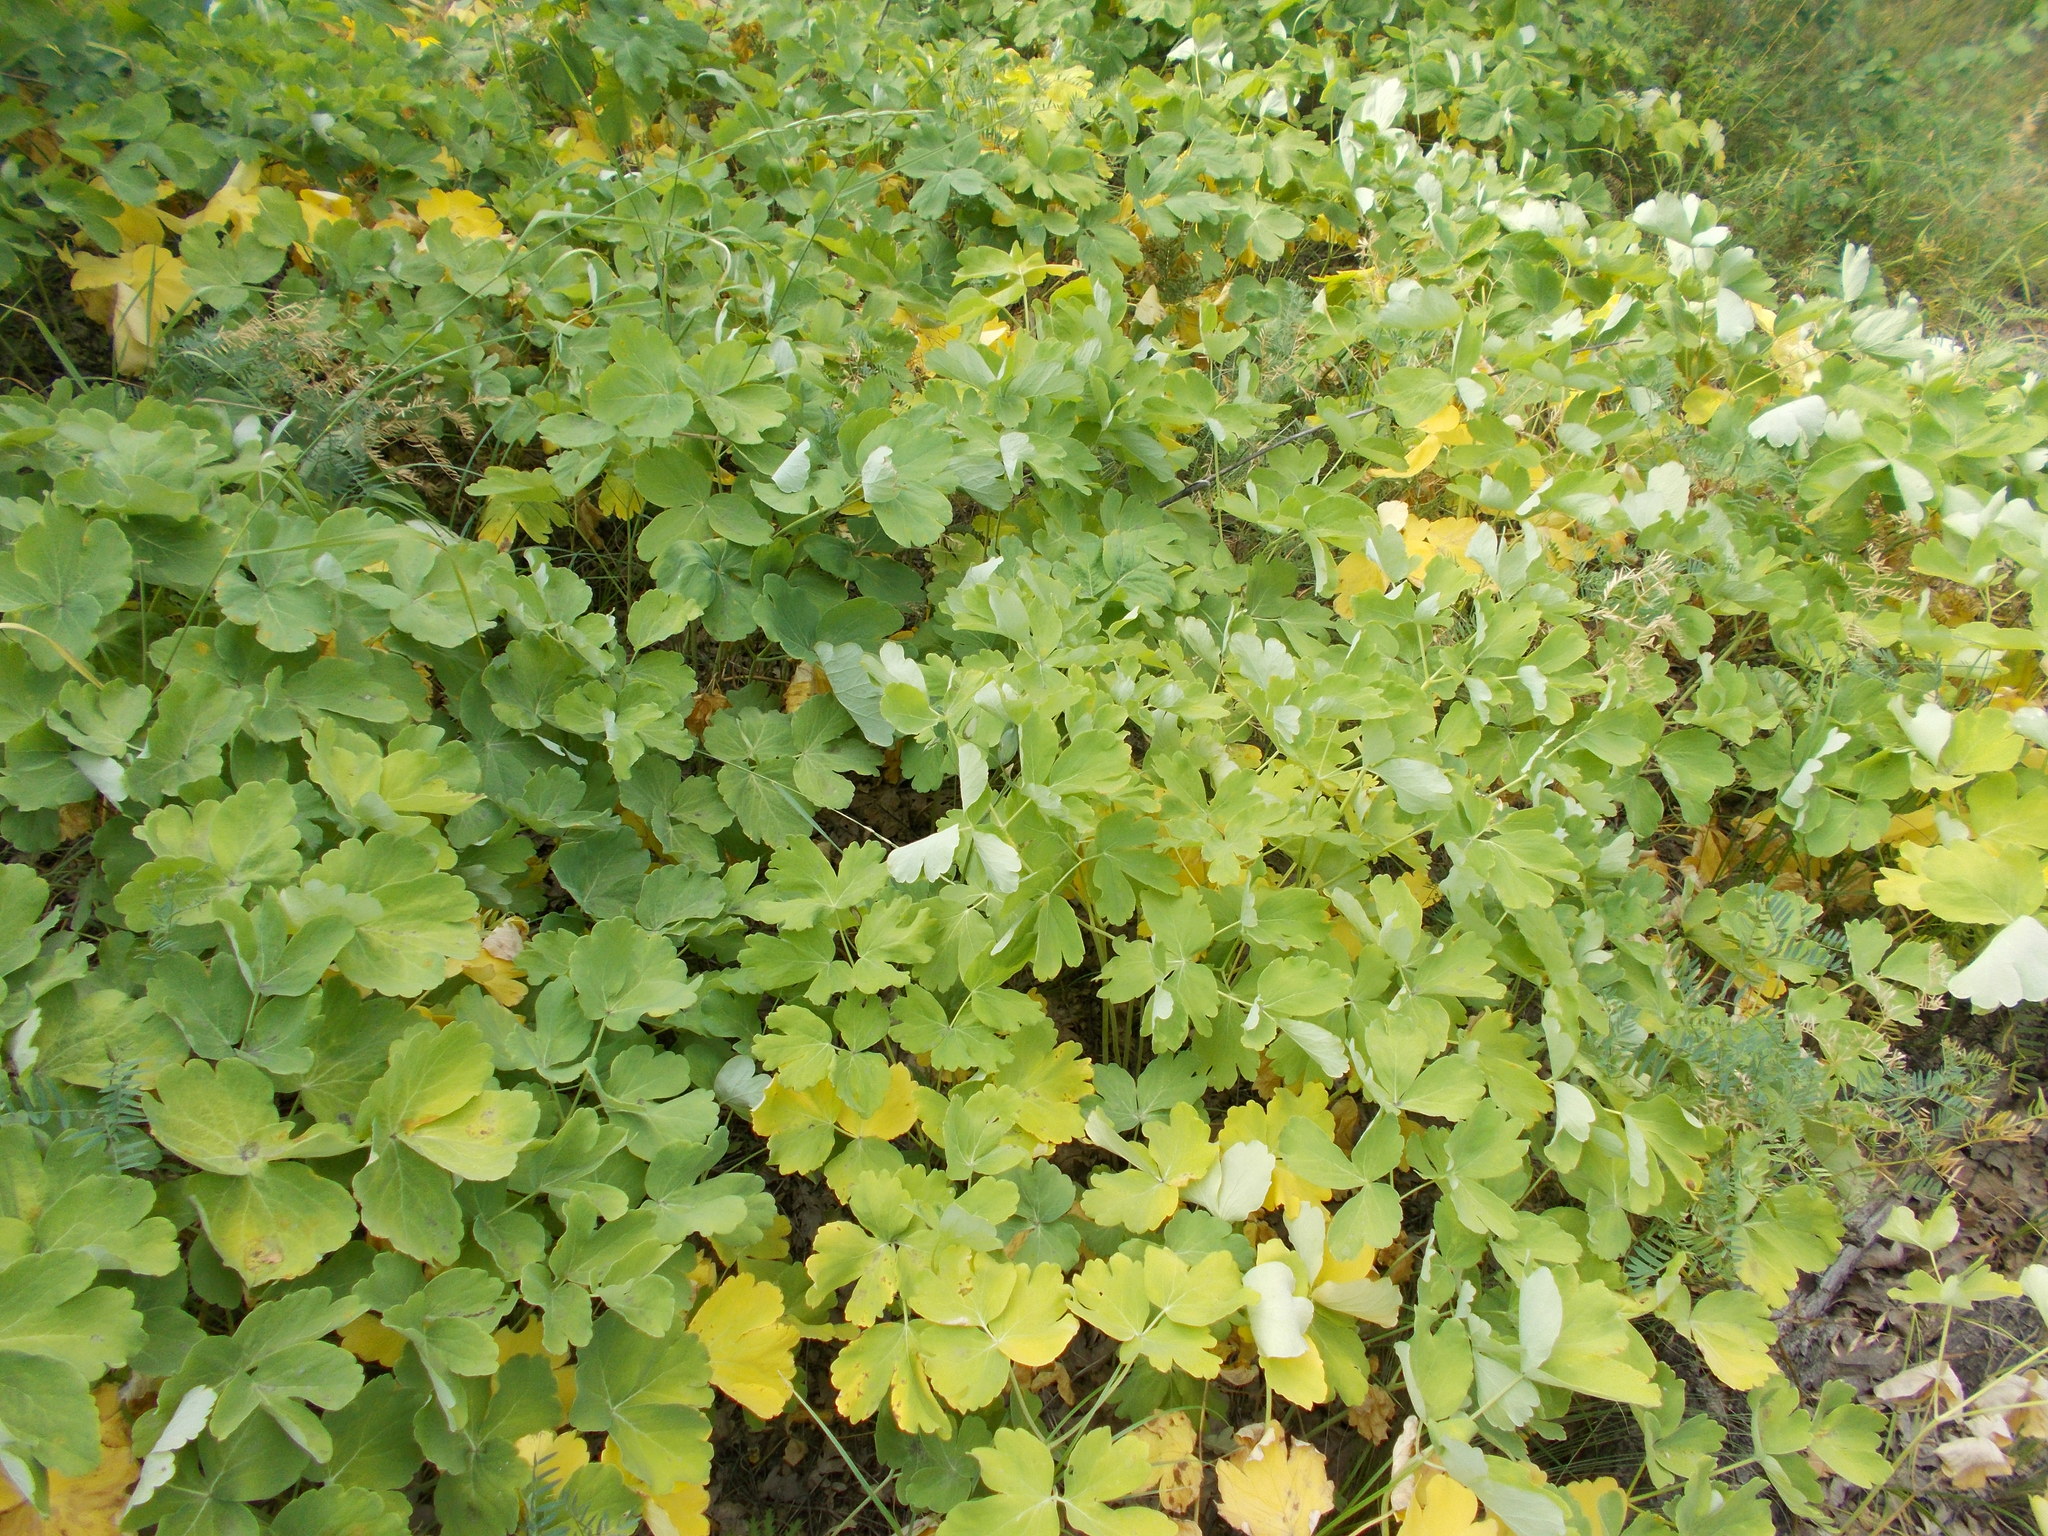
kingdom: Plantae
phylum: Tracheophyta
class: Magnoliopsida
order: Apiales
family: Apiaceae
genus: Laser
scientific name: Laser trilobum
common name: Laser
